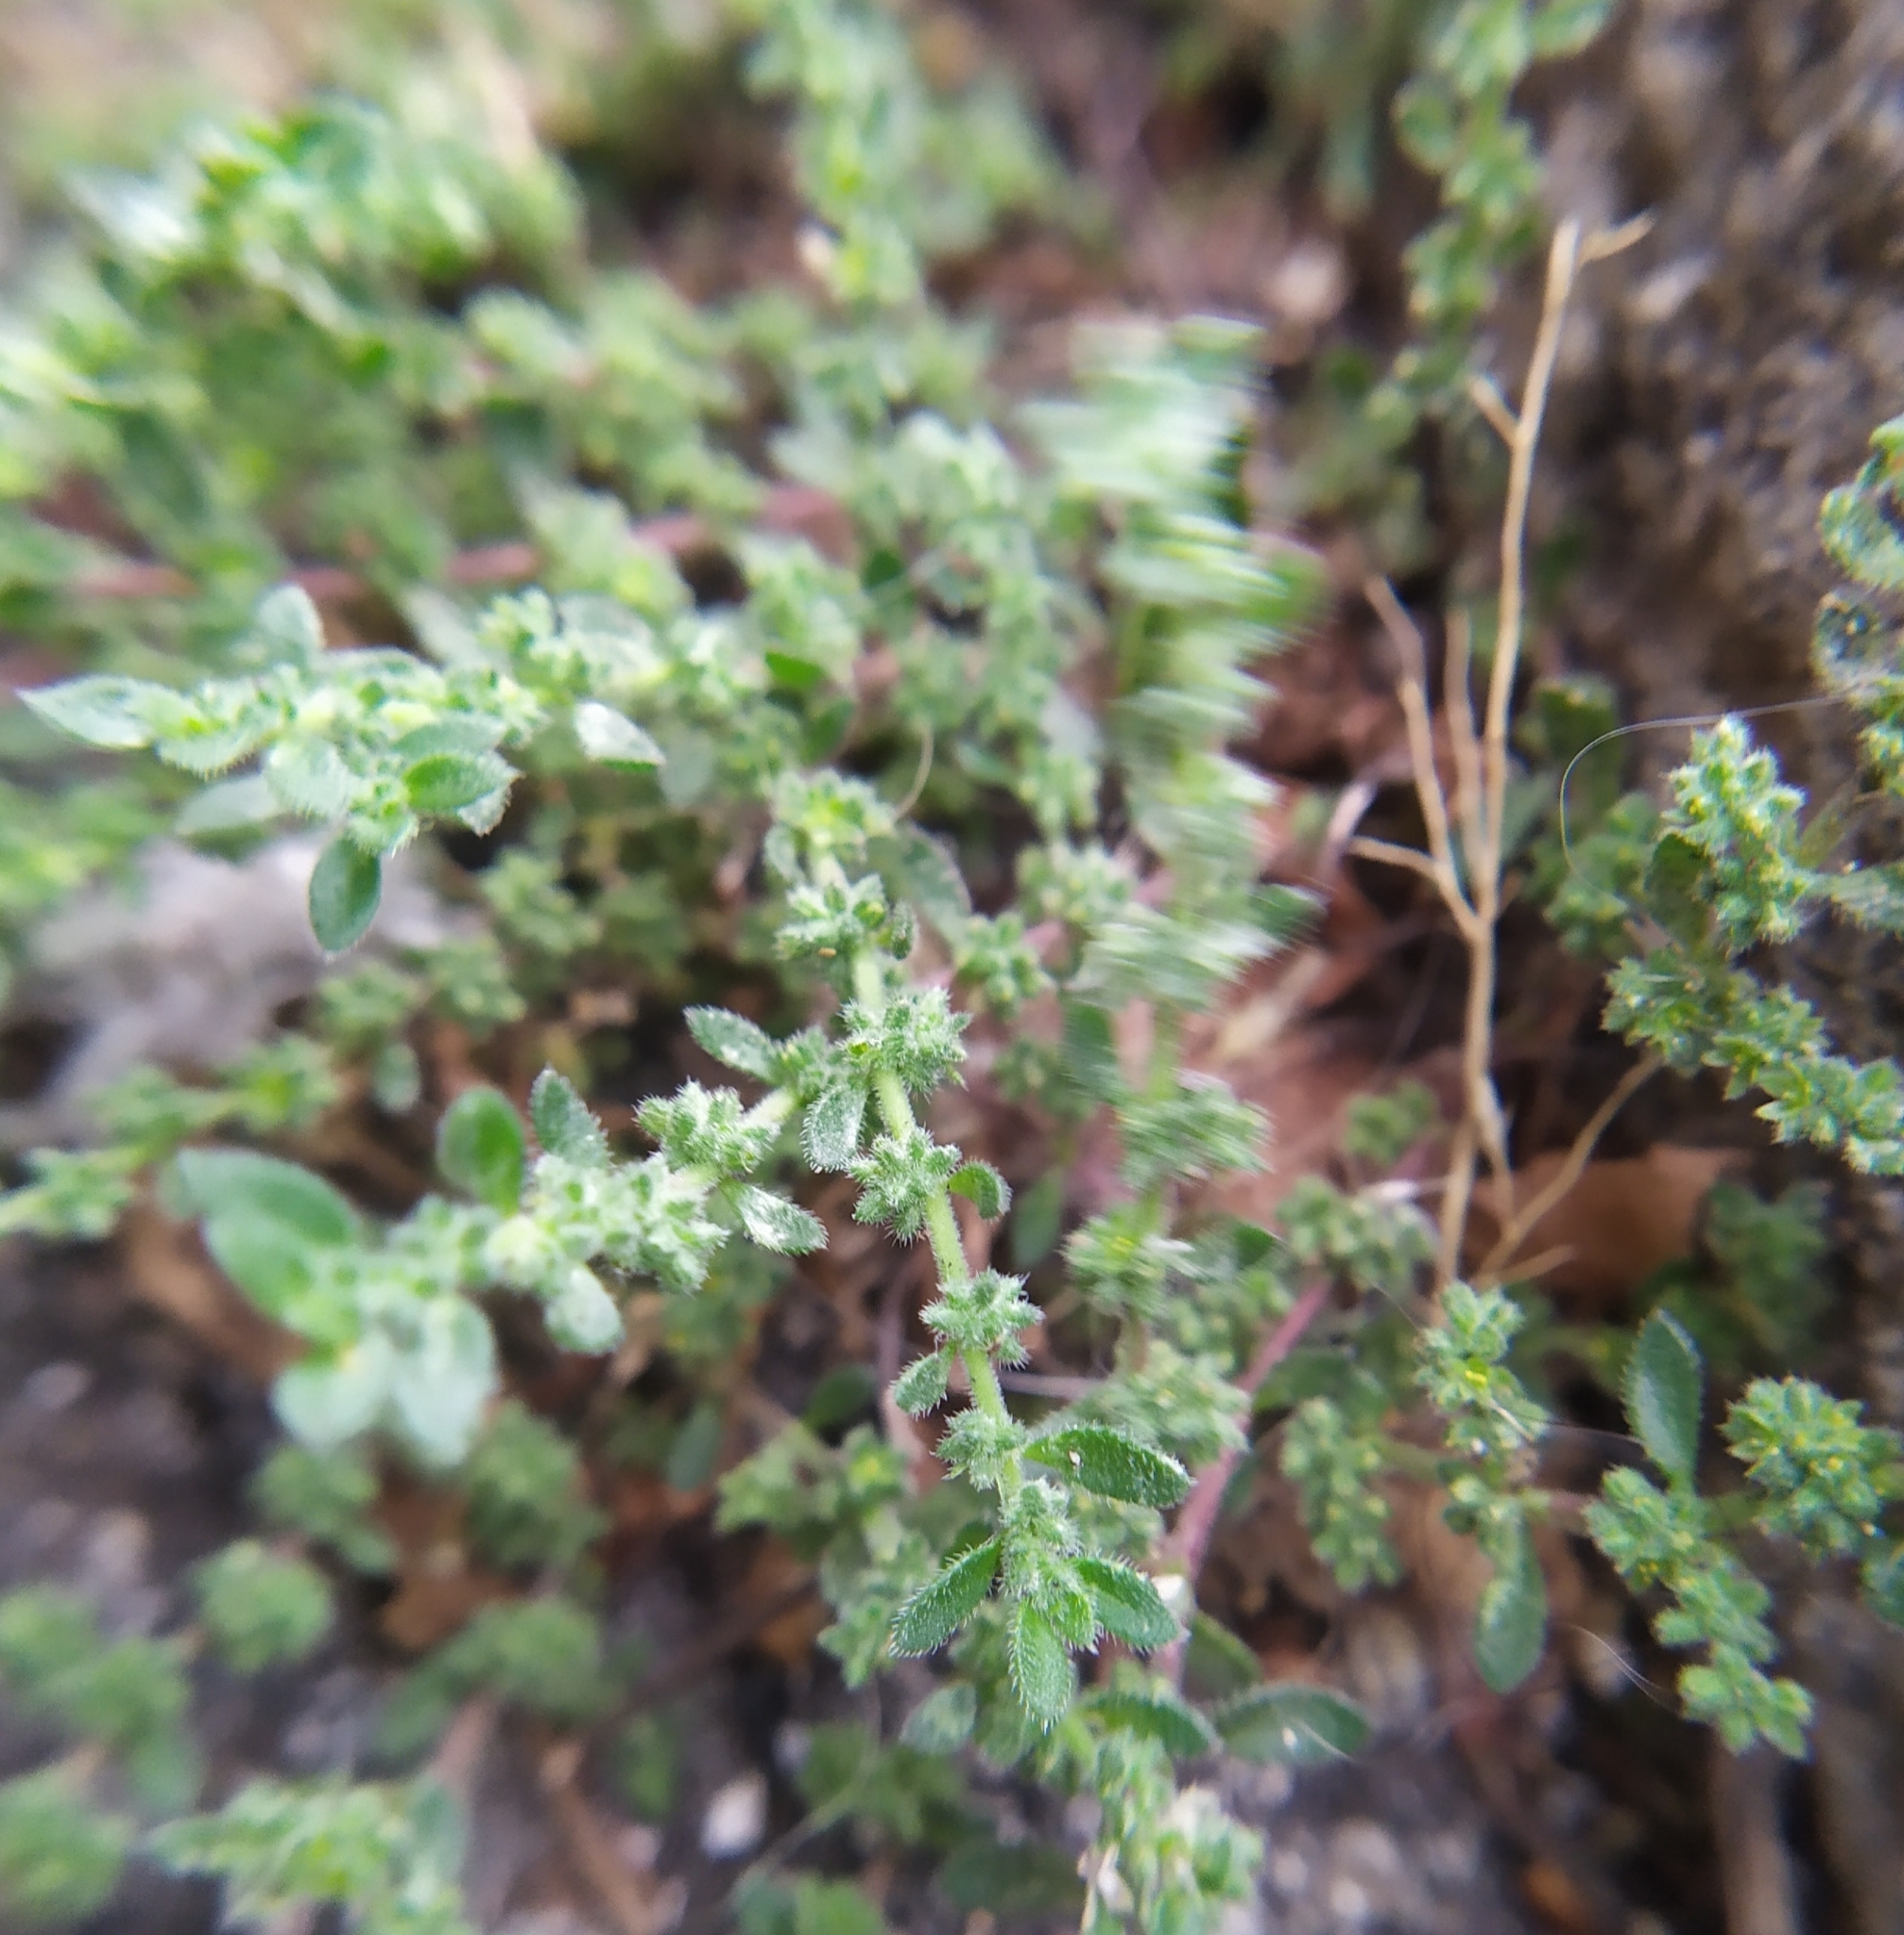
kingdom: Plantae
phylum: Tracheophyta
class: Magnoliopsida
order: Caryophyllales
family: Caryophyllaceae
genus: Herniaria
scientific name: Herniaria hirsuta
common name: Hairy rupturewort
